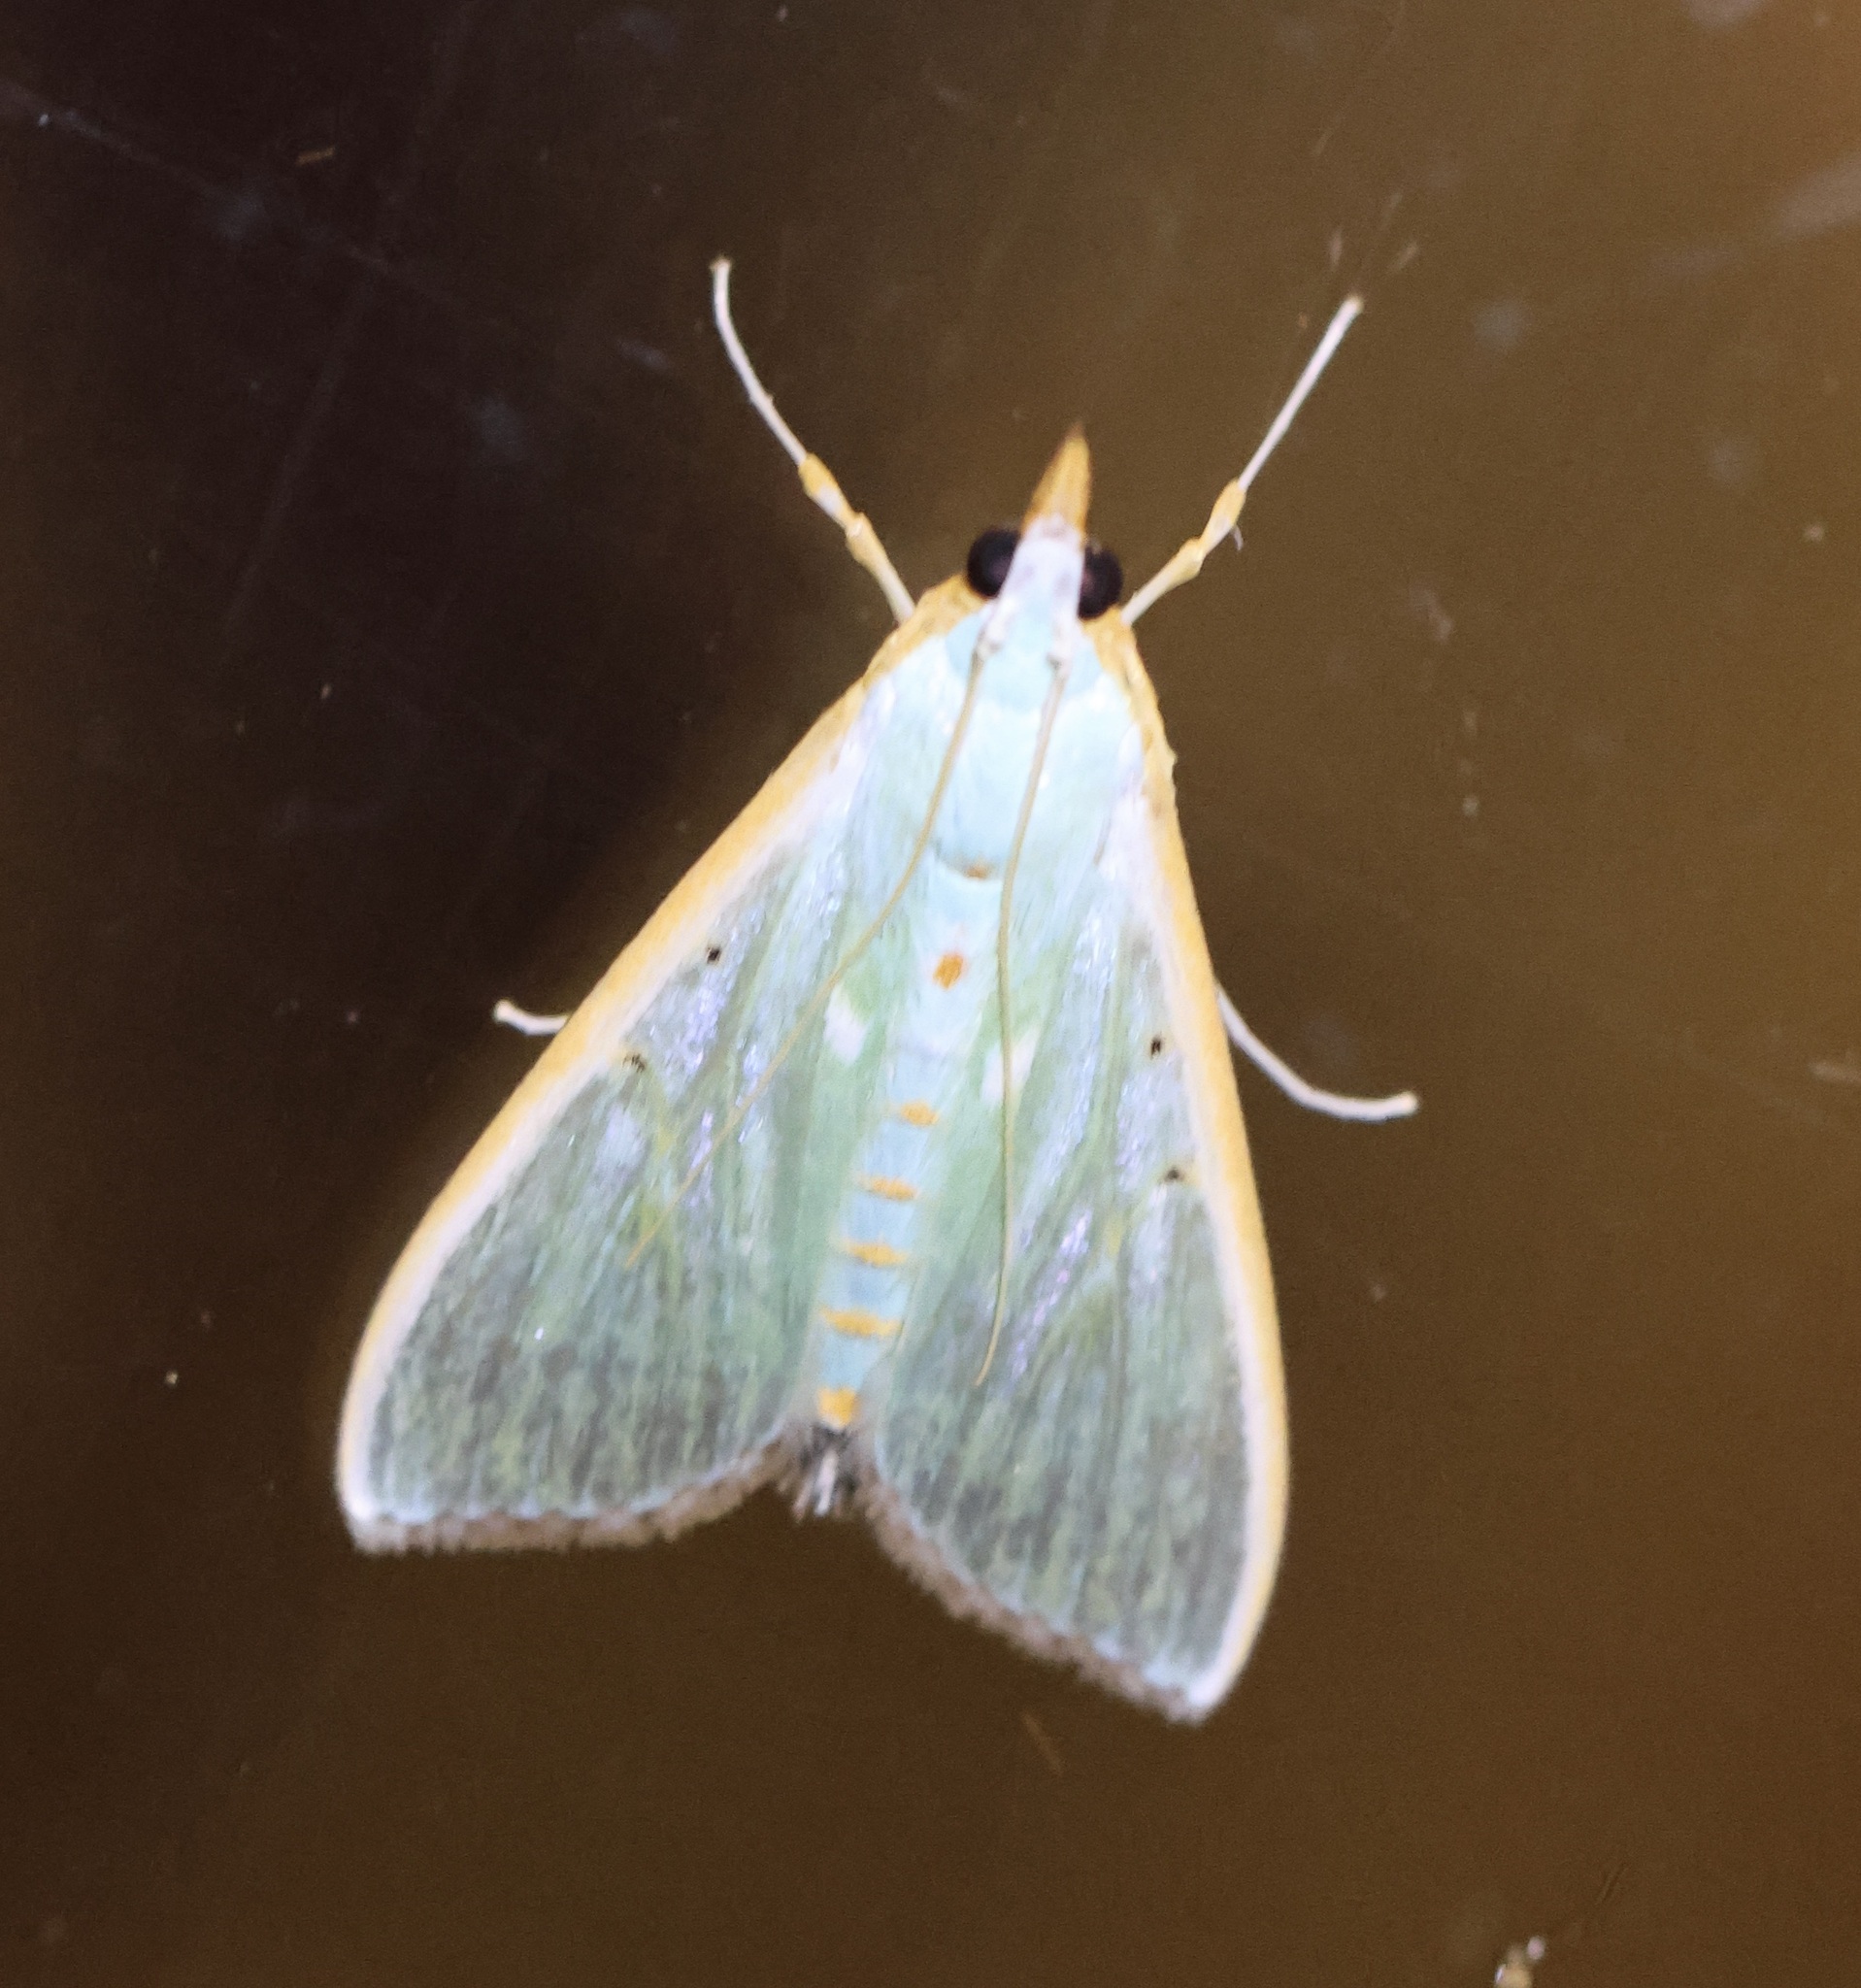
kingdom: Animalia
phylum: Arthropoda
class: Insecta
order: Lepidoptera
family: Crambidae
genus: Arthroschista
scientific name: Arthroschista hilaralis
